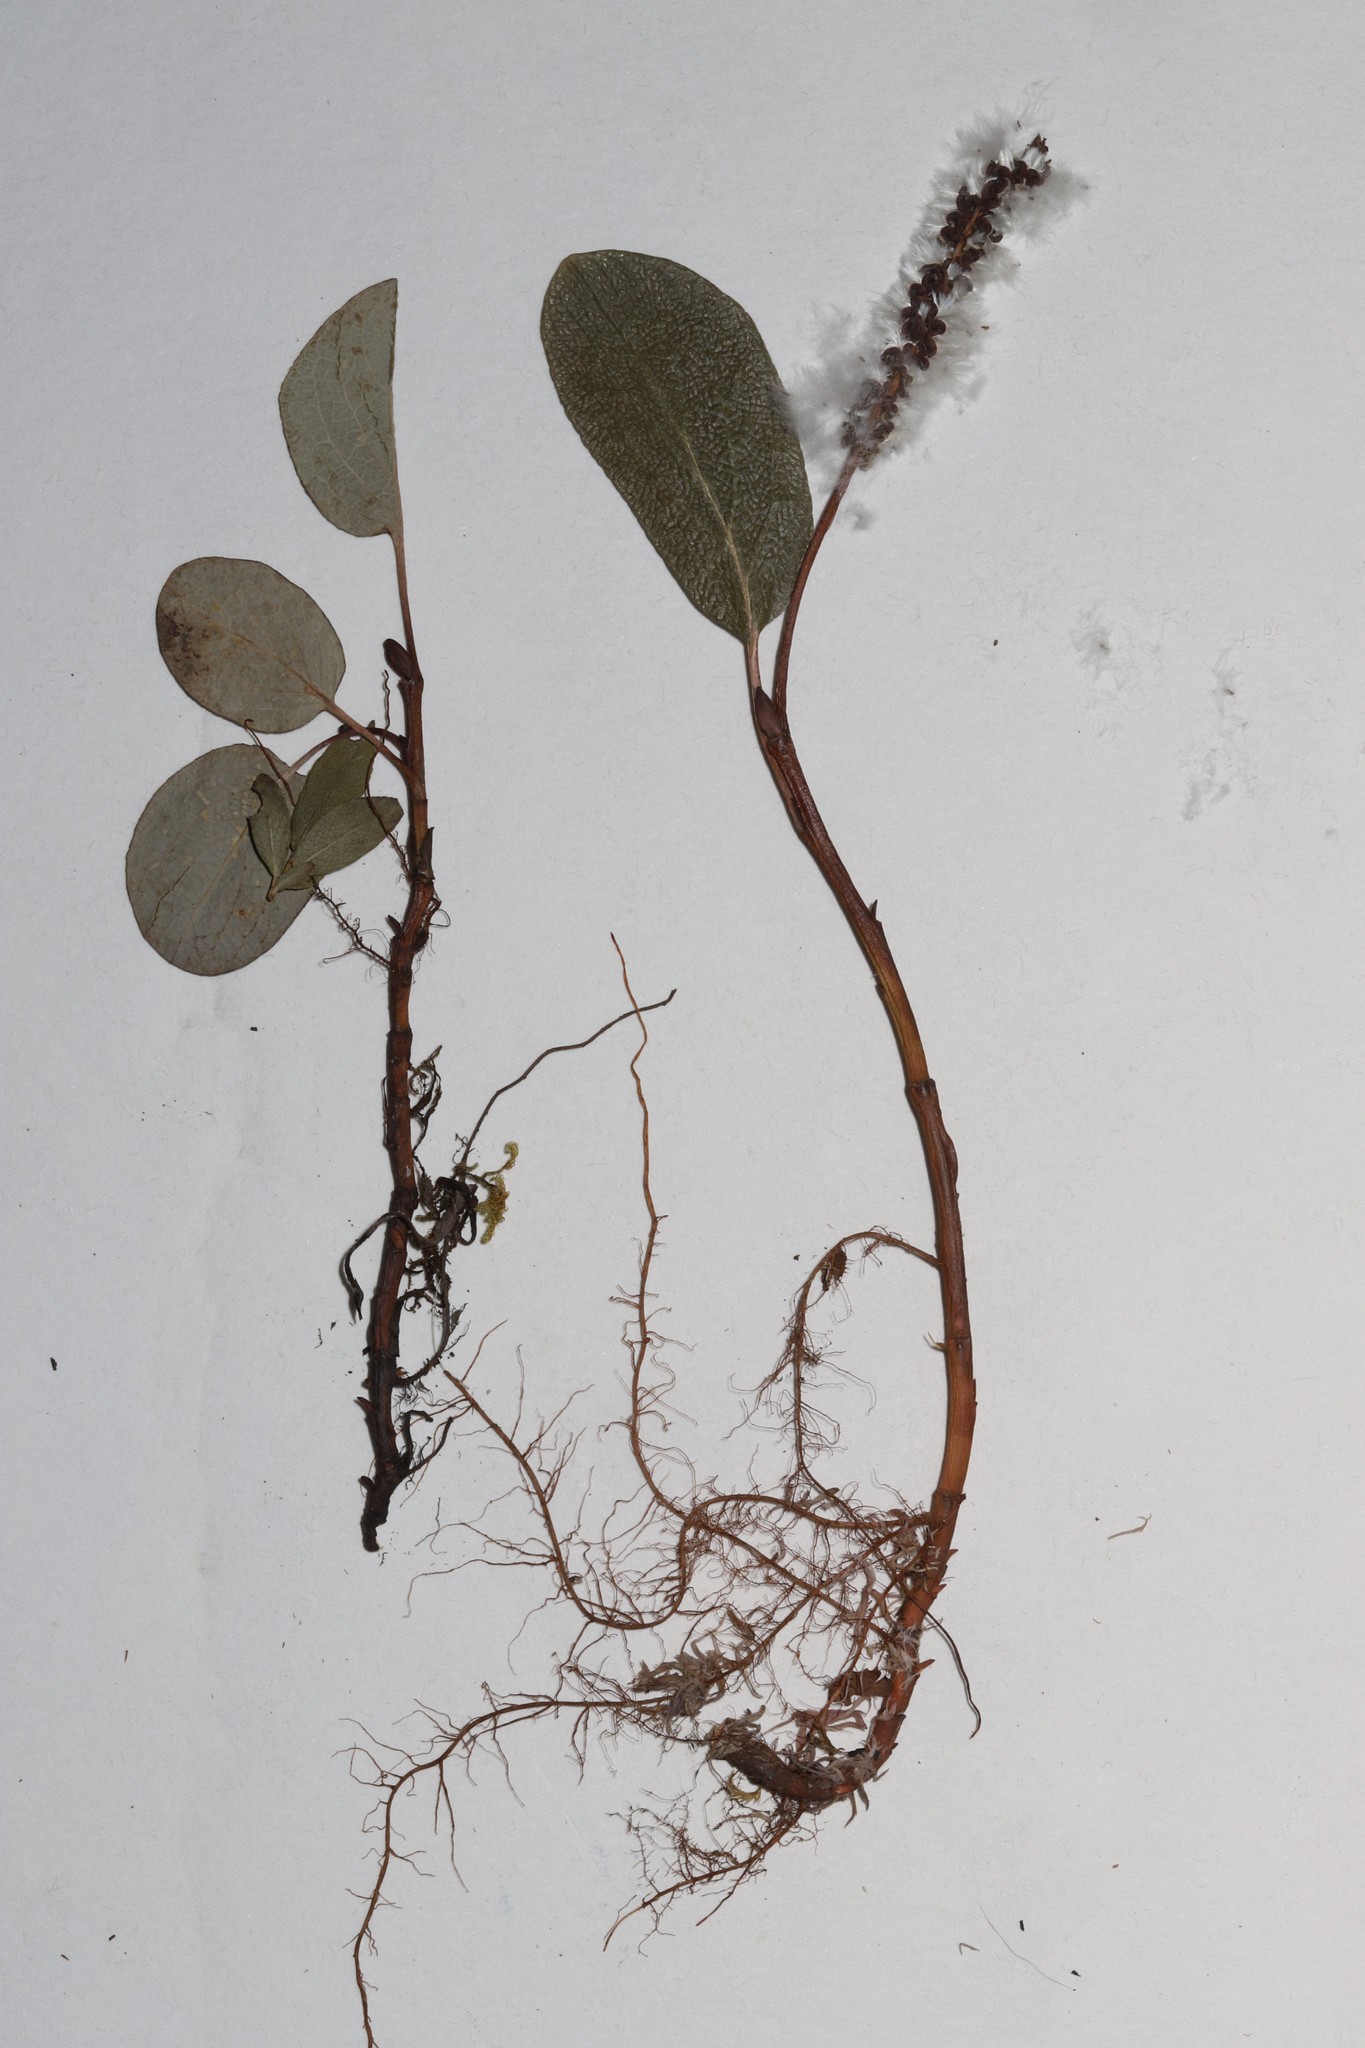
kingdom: Plantae
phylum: Tracheophyta
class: Magnoliopsida
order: Malpighiales
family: Salicaceae
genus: Salix
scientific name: Salix reticulata
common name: Net-leaved willow
